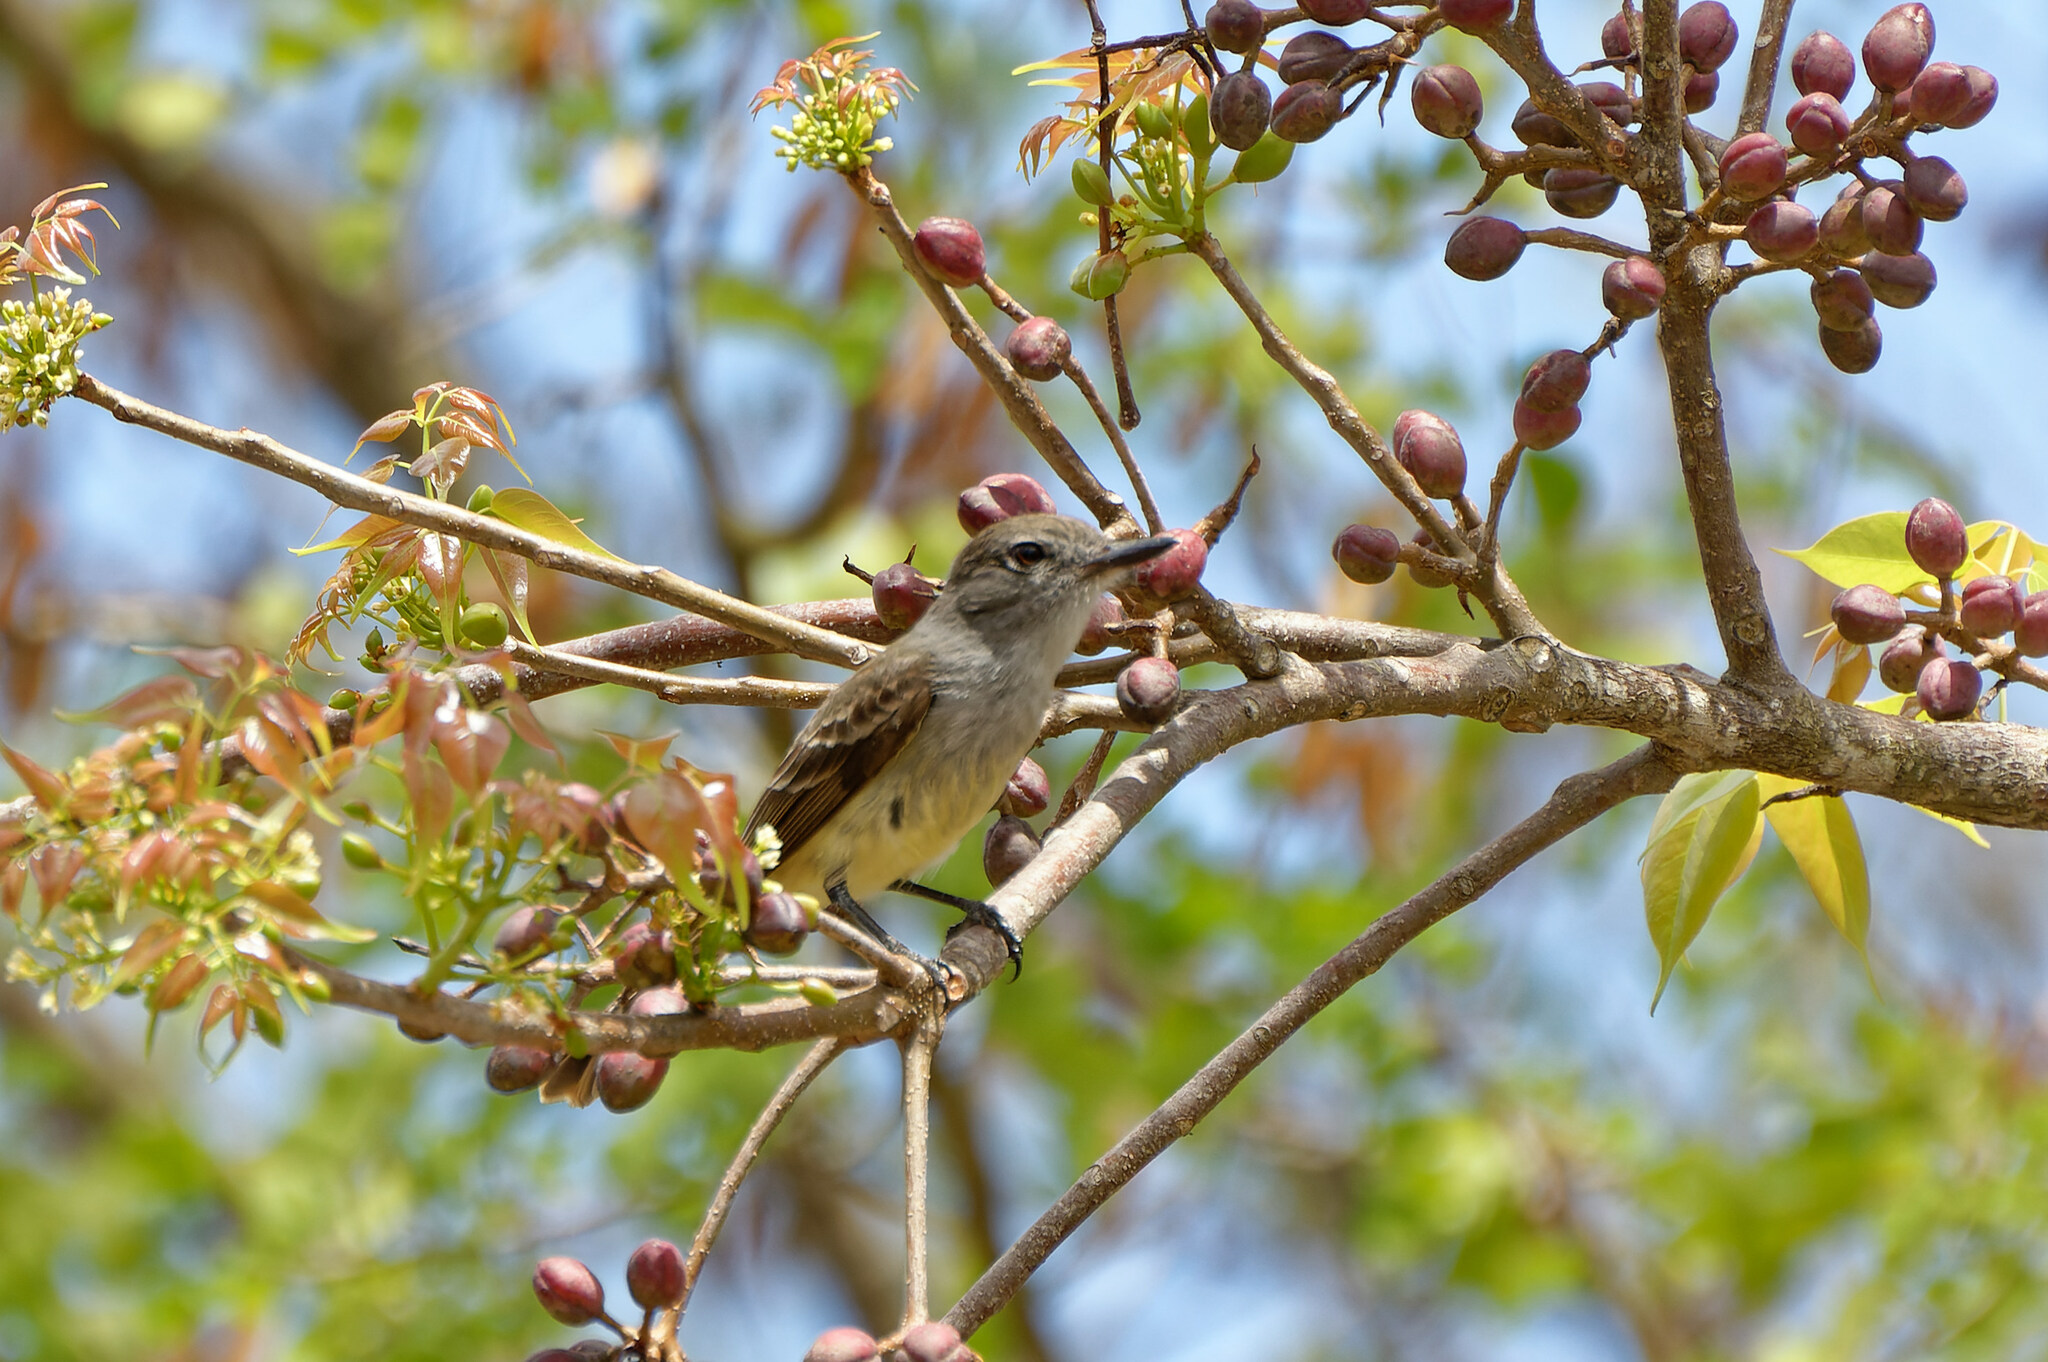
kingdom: Animalia
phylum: Chordata
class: Aves
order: Passeriformes
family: Tyrannidae
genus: Myiarchus
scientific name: Myiarchus oberi
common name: Lesser antillean flycatcher
